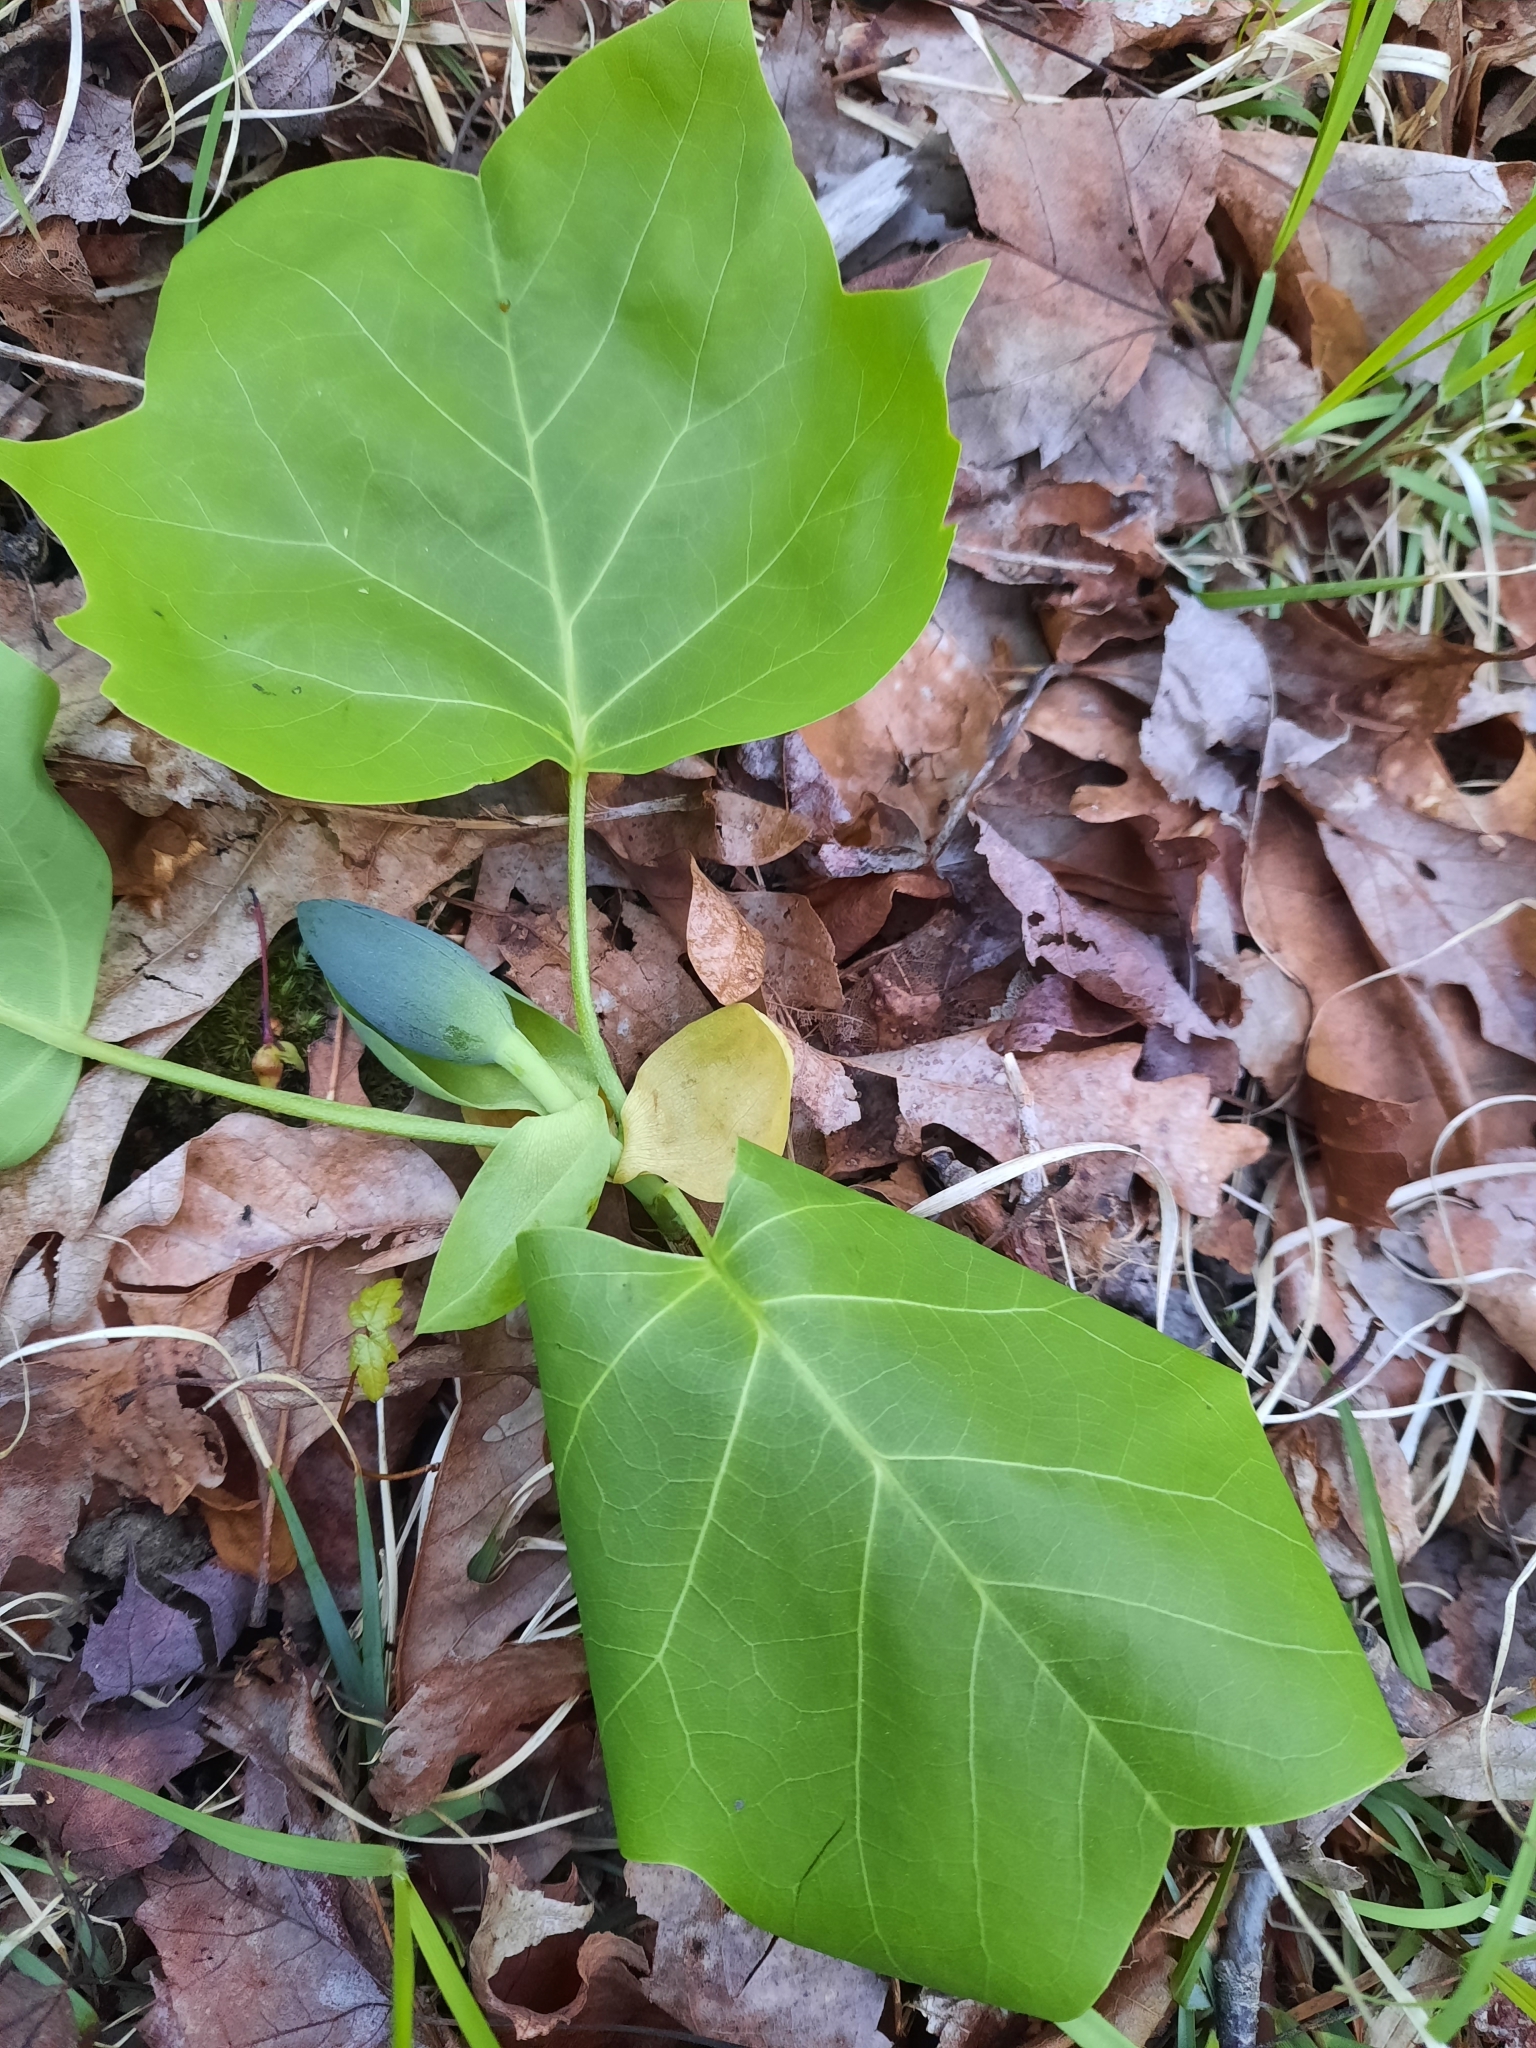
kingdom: Plantae
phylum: Tracheophyta
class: Magnoliopsida
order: Magnoliales
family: Magnoliaceae
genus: Liriodendron
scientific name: Liriodendron tulipifera
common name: Tulip tree
